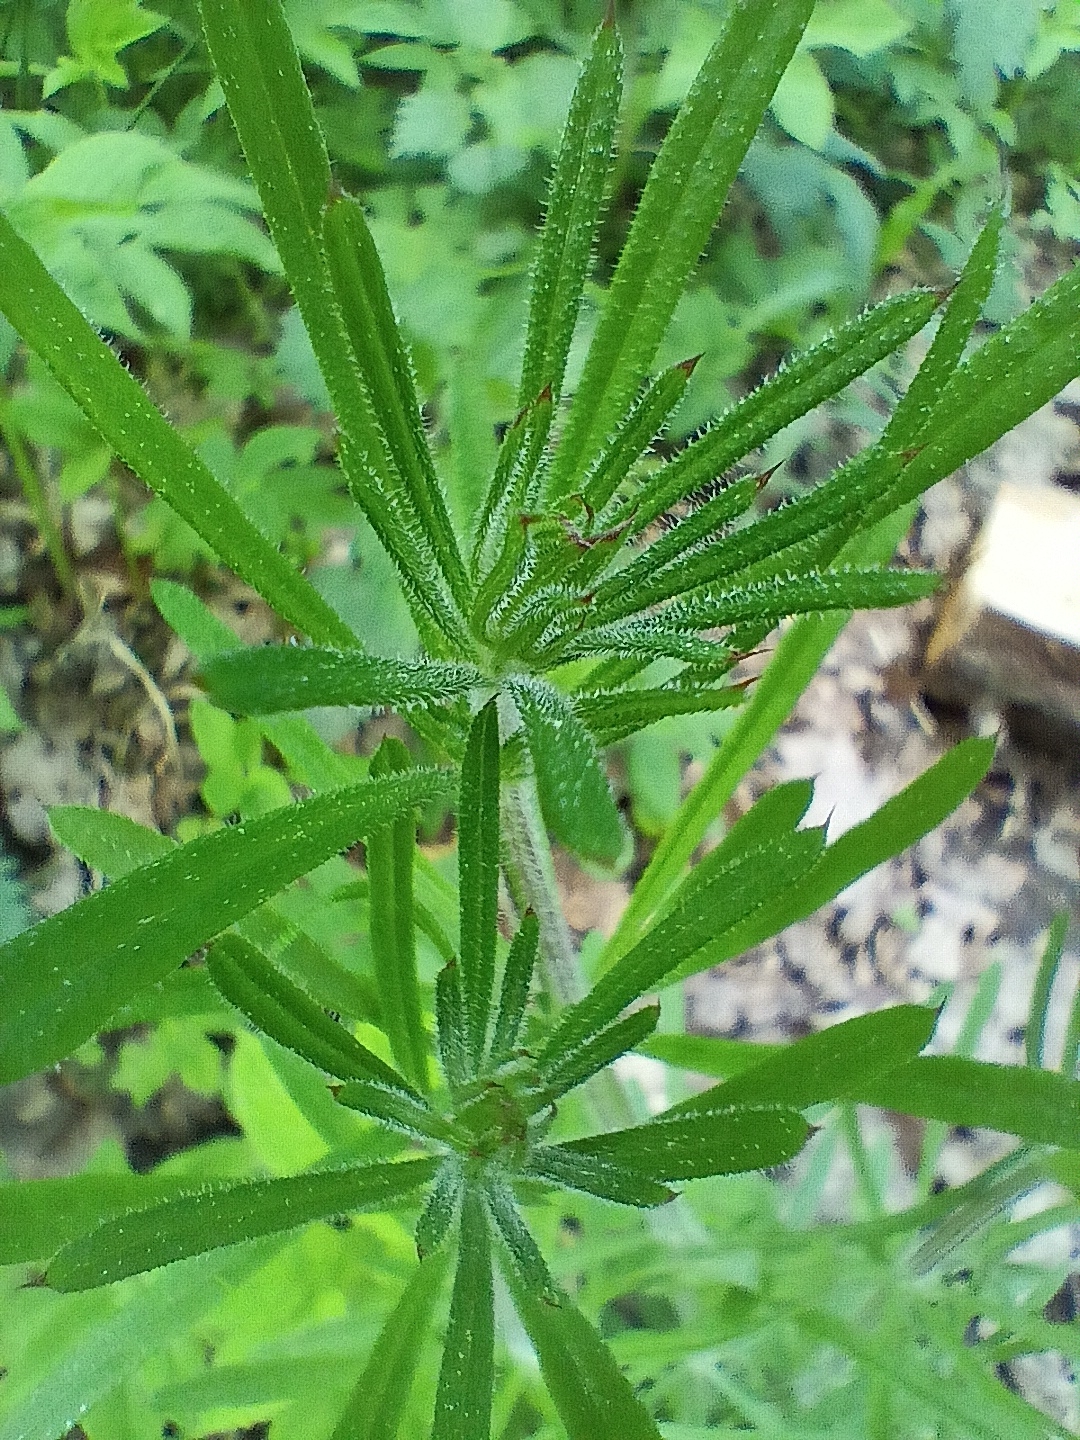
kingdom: Plantae
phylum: Tracheophyta
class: Magnoliopsida
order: Gentianales
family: Rubiaceae
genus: Galium
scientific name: Galium aparine
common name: Cleavers
